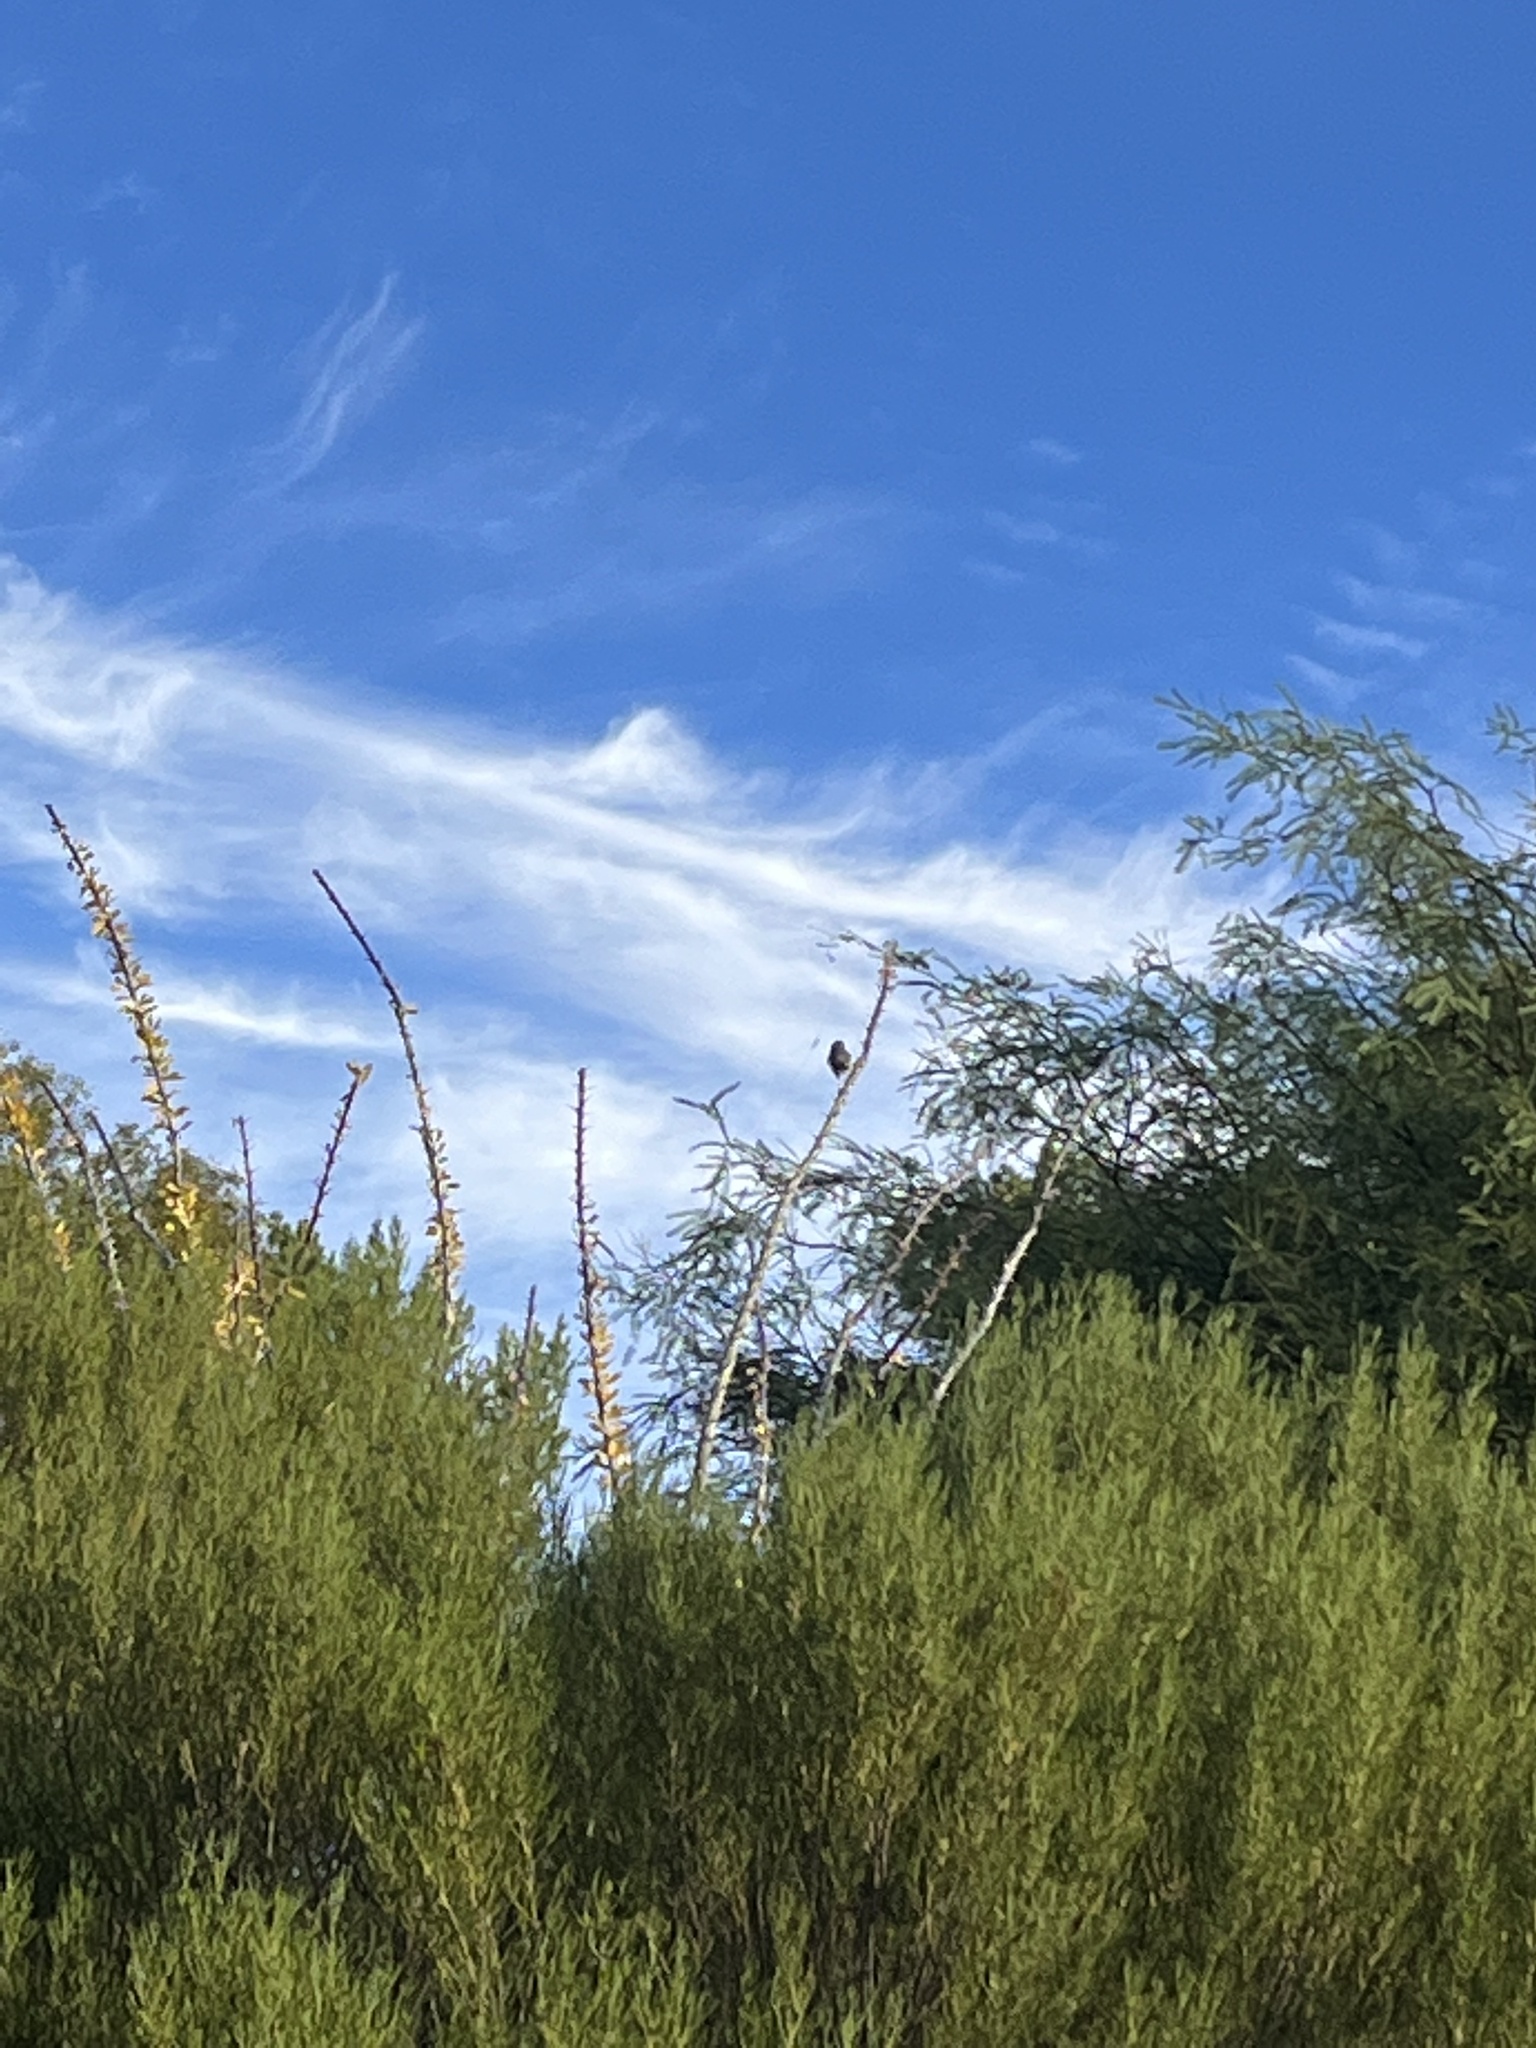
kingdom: Animalia
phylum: Chordata
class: Aves
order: Passeriformes
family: Remizidae
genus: Auriparus
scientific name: Auriparus flaviceps
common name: Verdin
